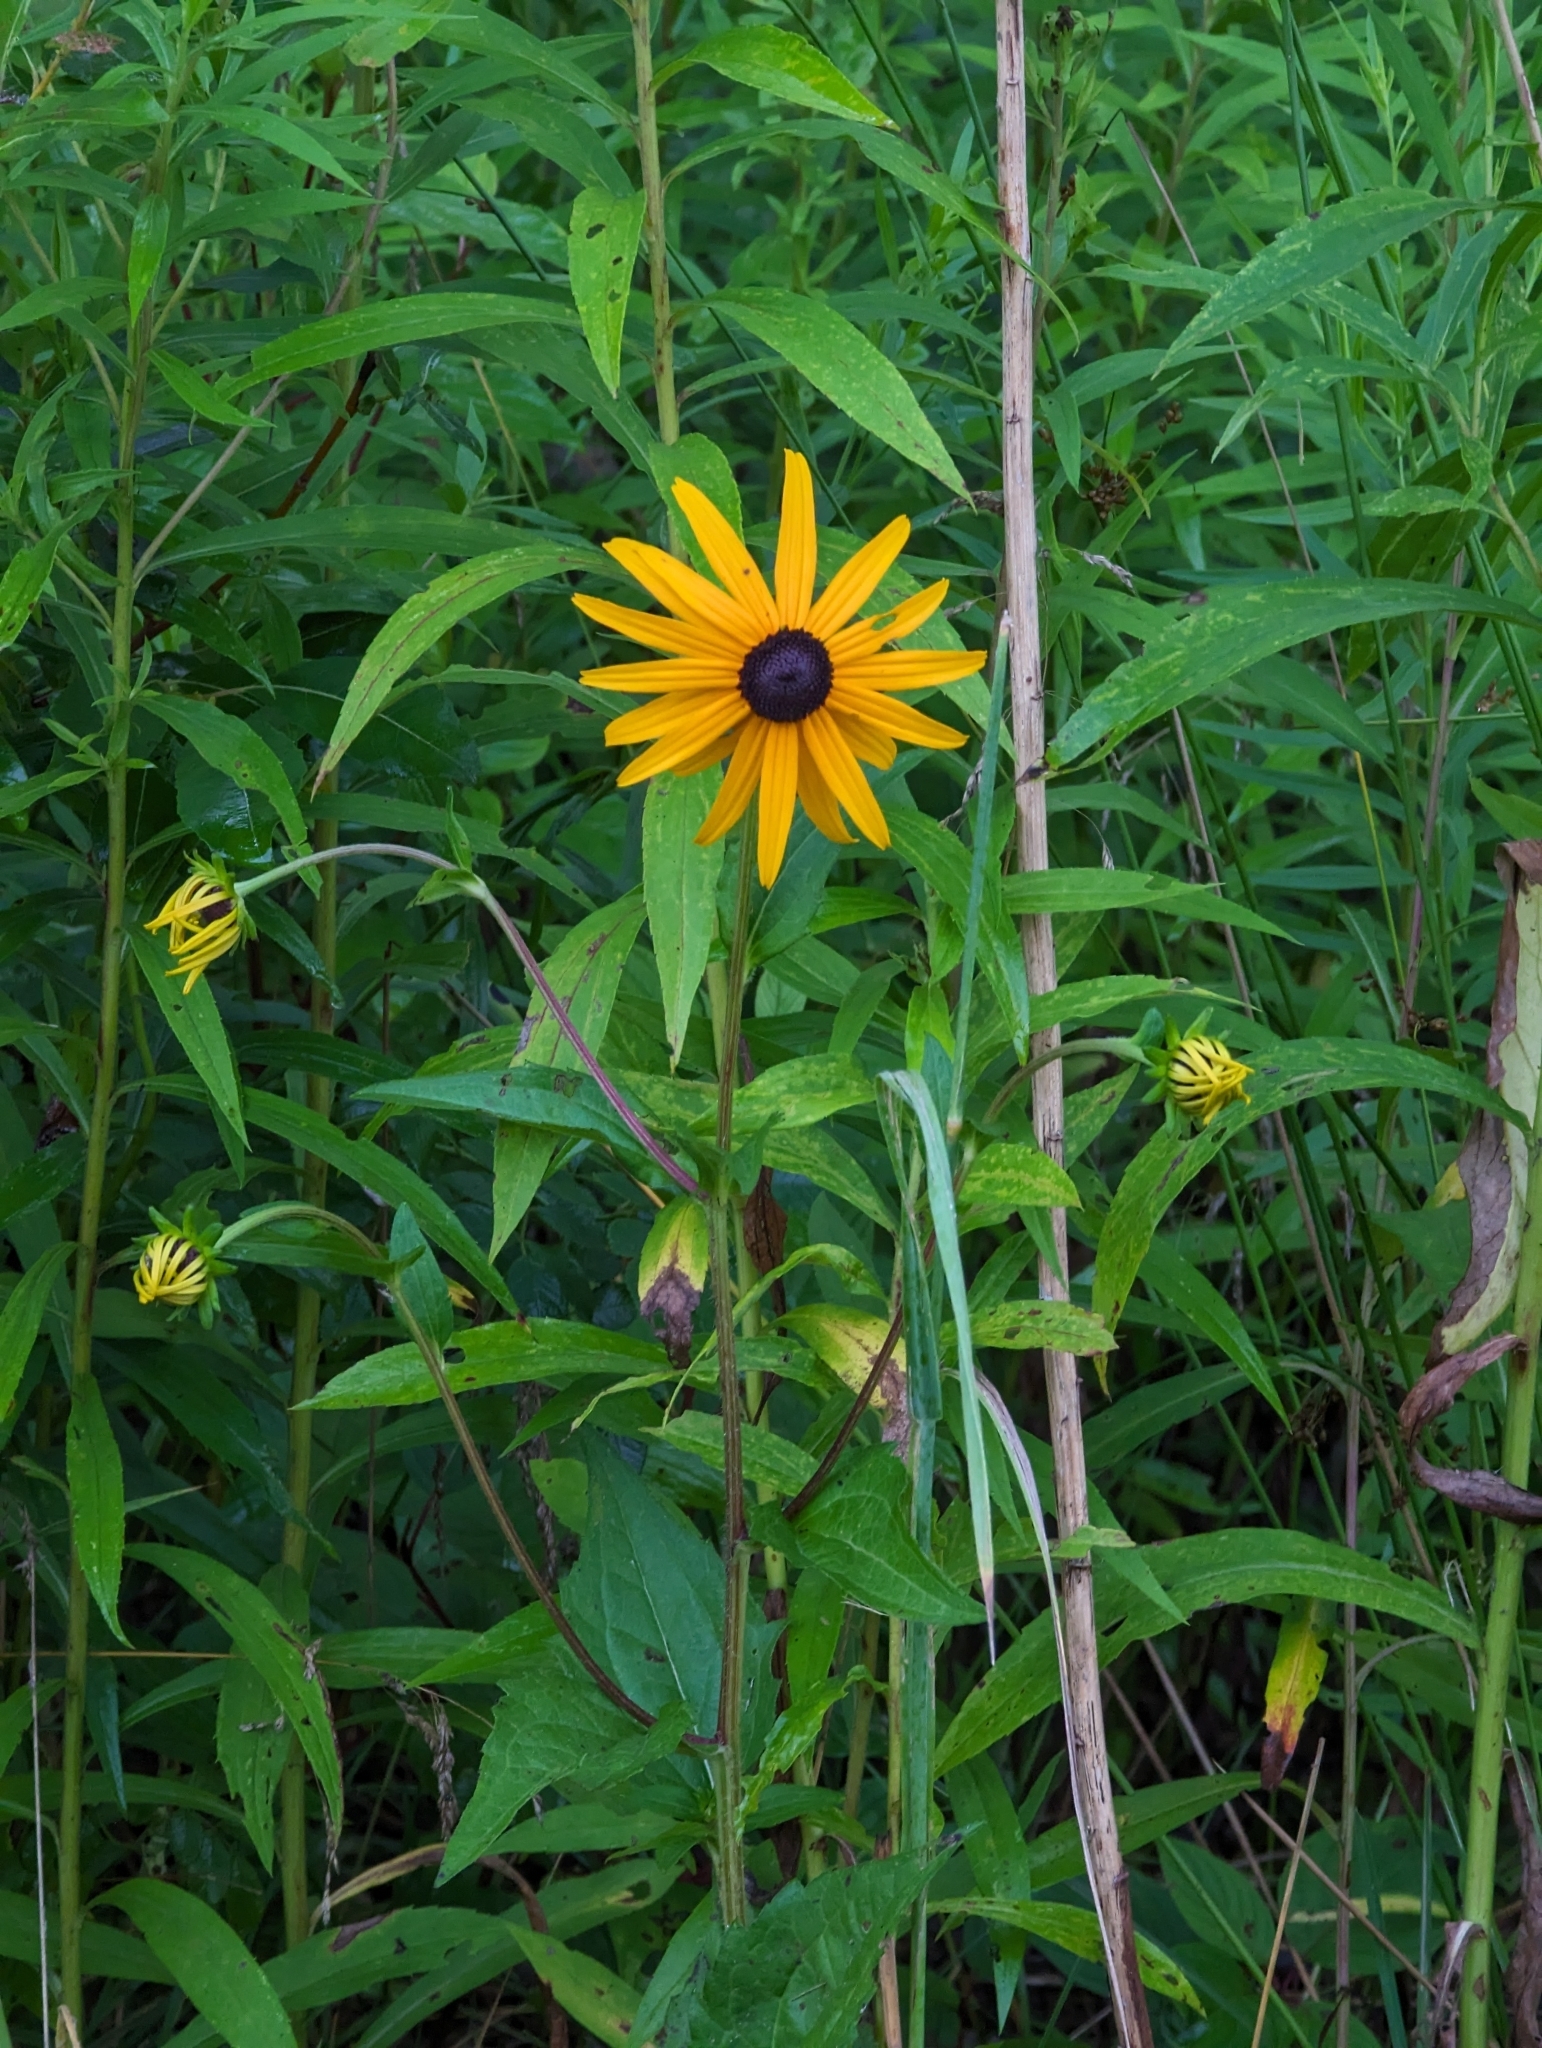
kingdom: Plantae
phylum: Tracheophyta
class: Magnoliopsida
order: Asterales
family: Asteraceae
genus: Rudbeckia
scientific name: Rudbeckia hirta
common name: Black-eyed-susan
